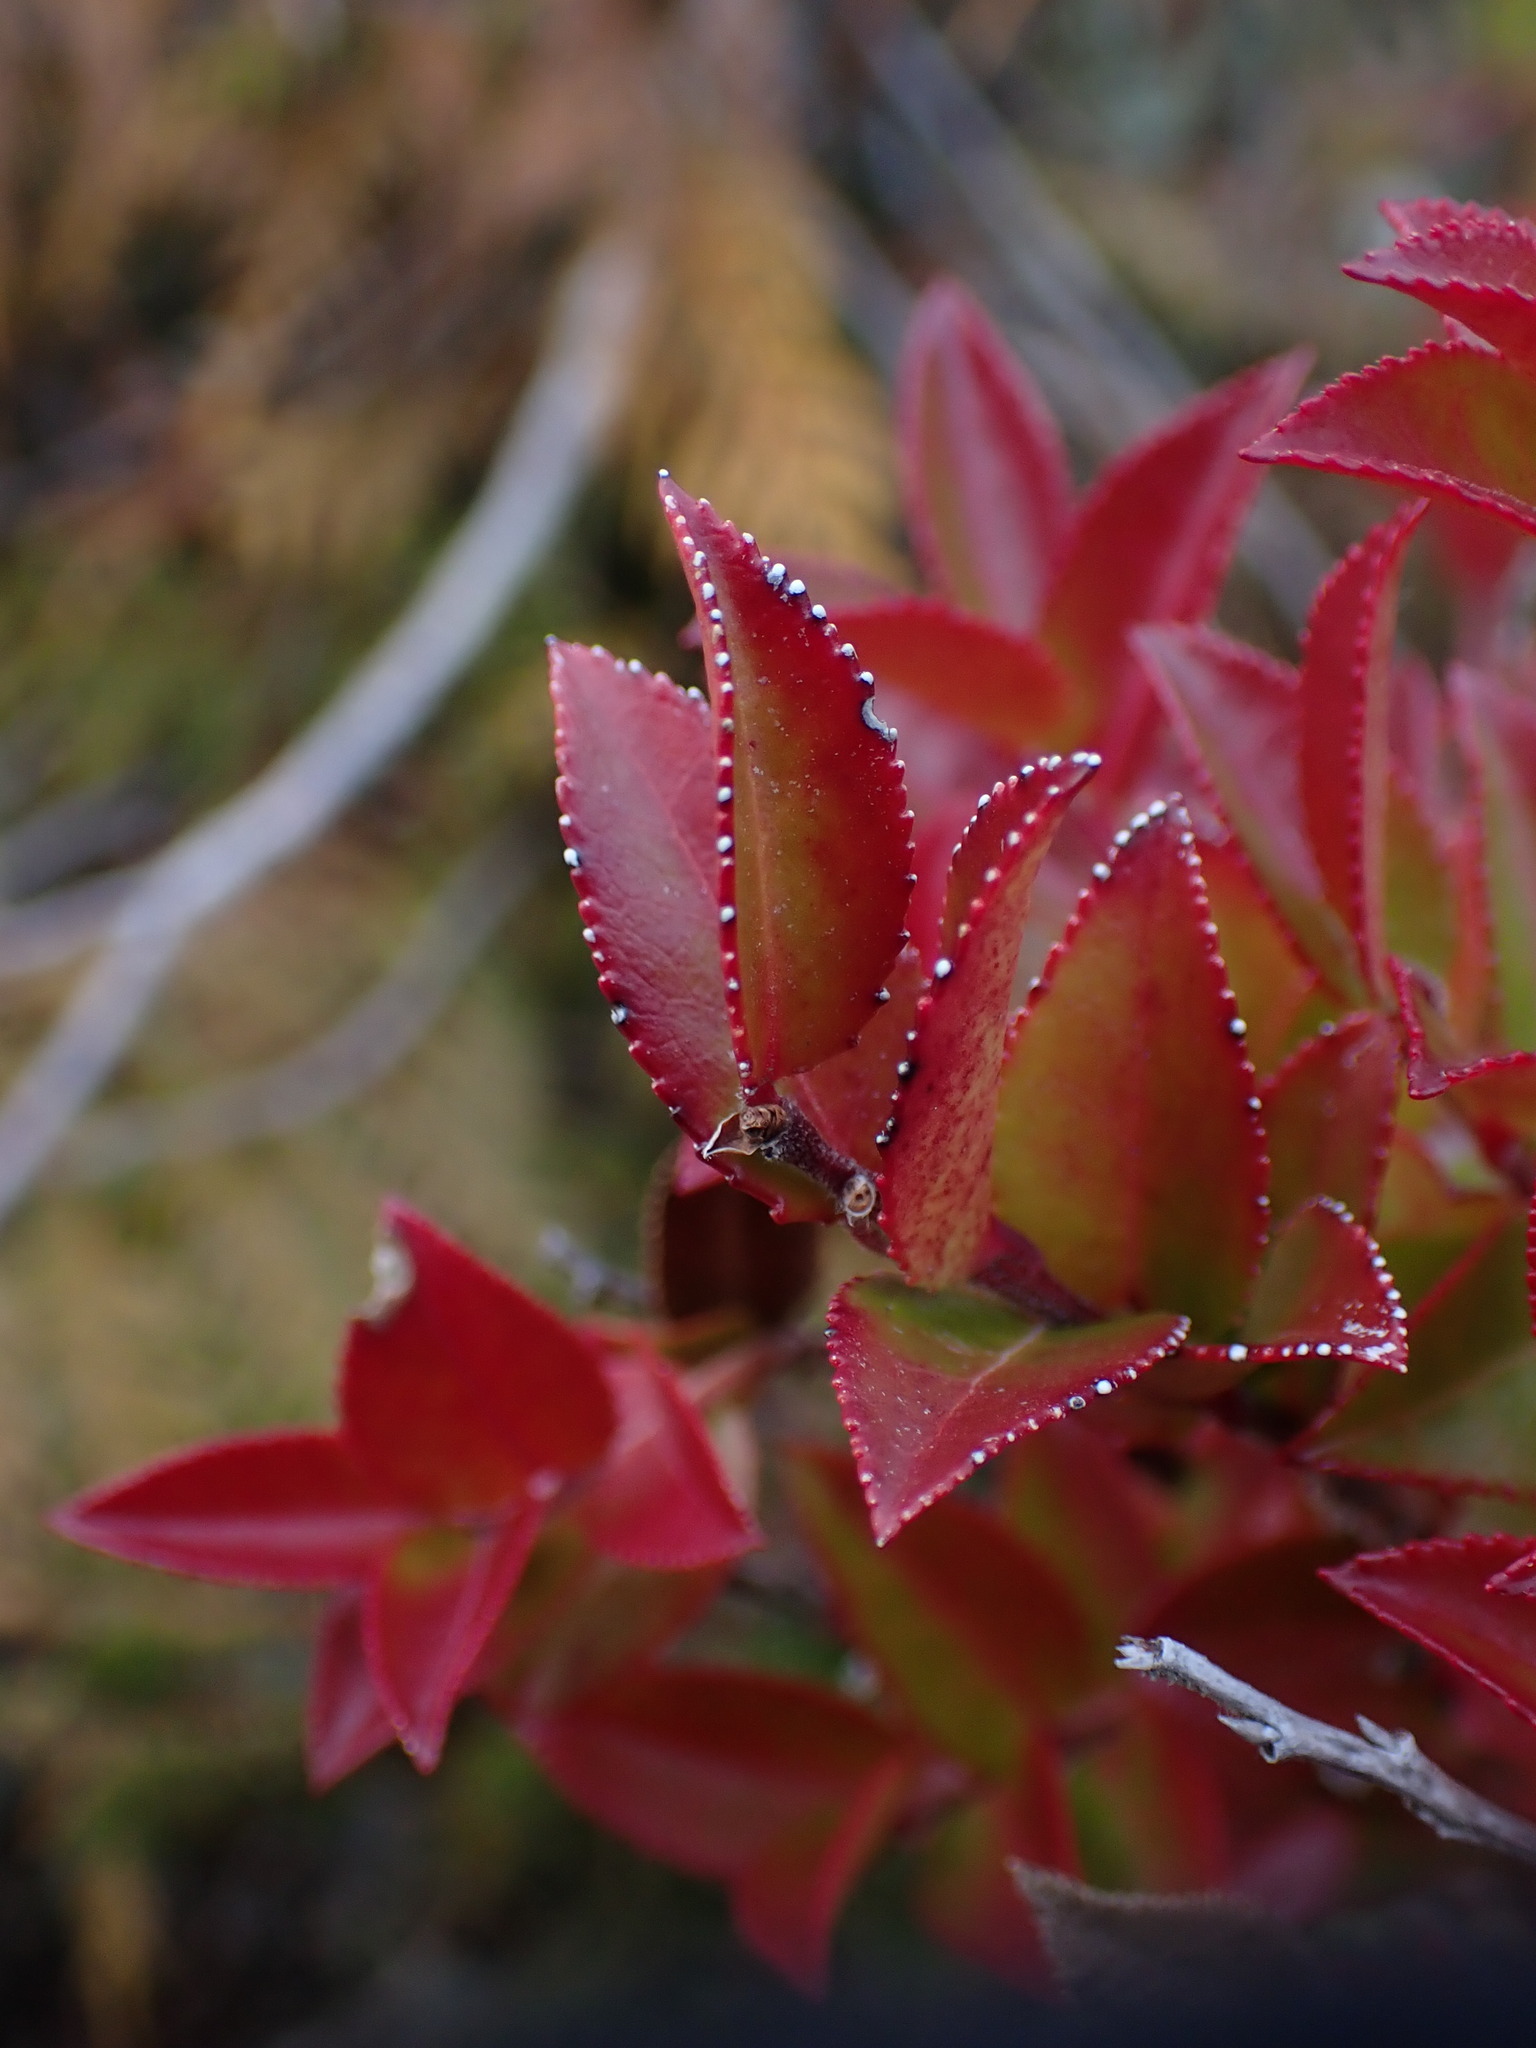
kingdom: Plantae
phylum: Tracheophyta
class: Magnoliopsida
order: Ericales
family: Ericaceae
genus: Vaccinium
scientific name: Vaccinium ovatum
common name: California-huckleberry
